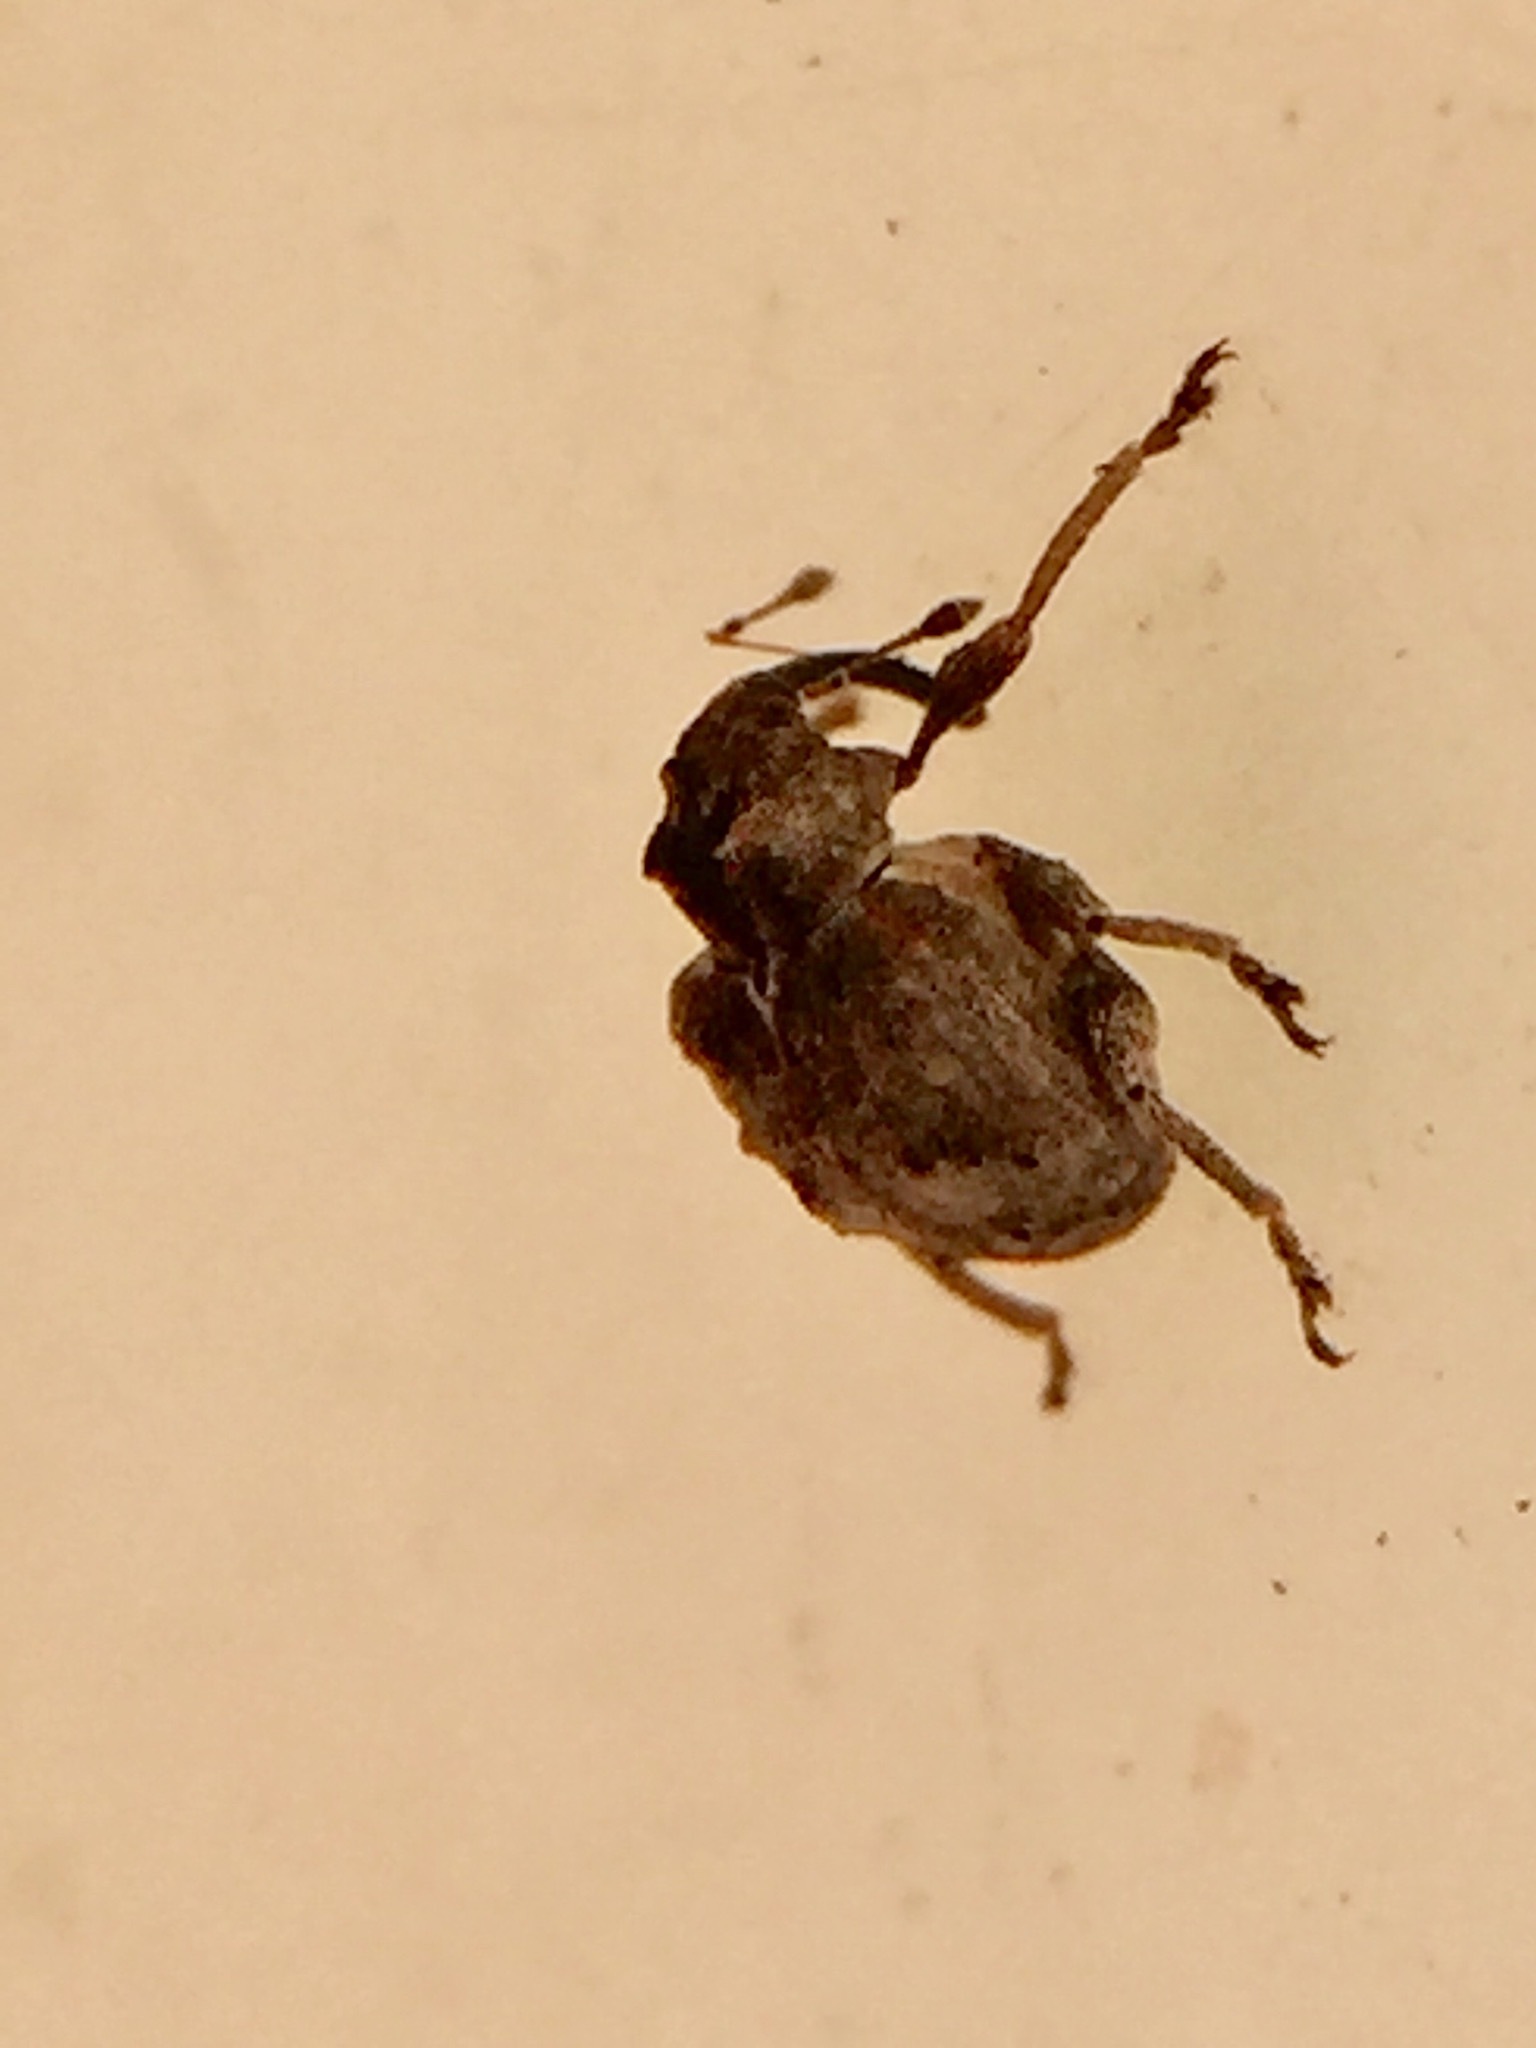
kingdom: Animalia
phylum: Arthropoda
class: Insecta
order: Coleoptera
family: Curculionidae
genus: Gerynassa
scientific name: Gerynassa
